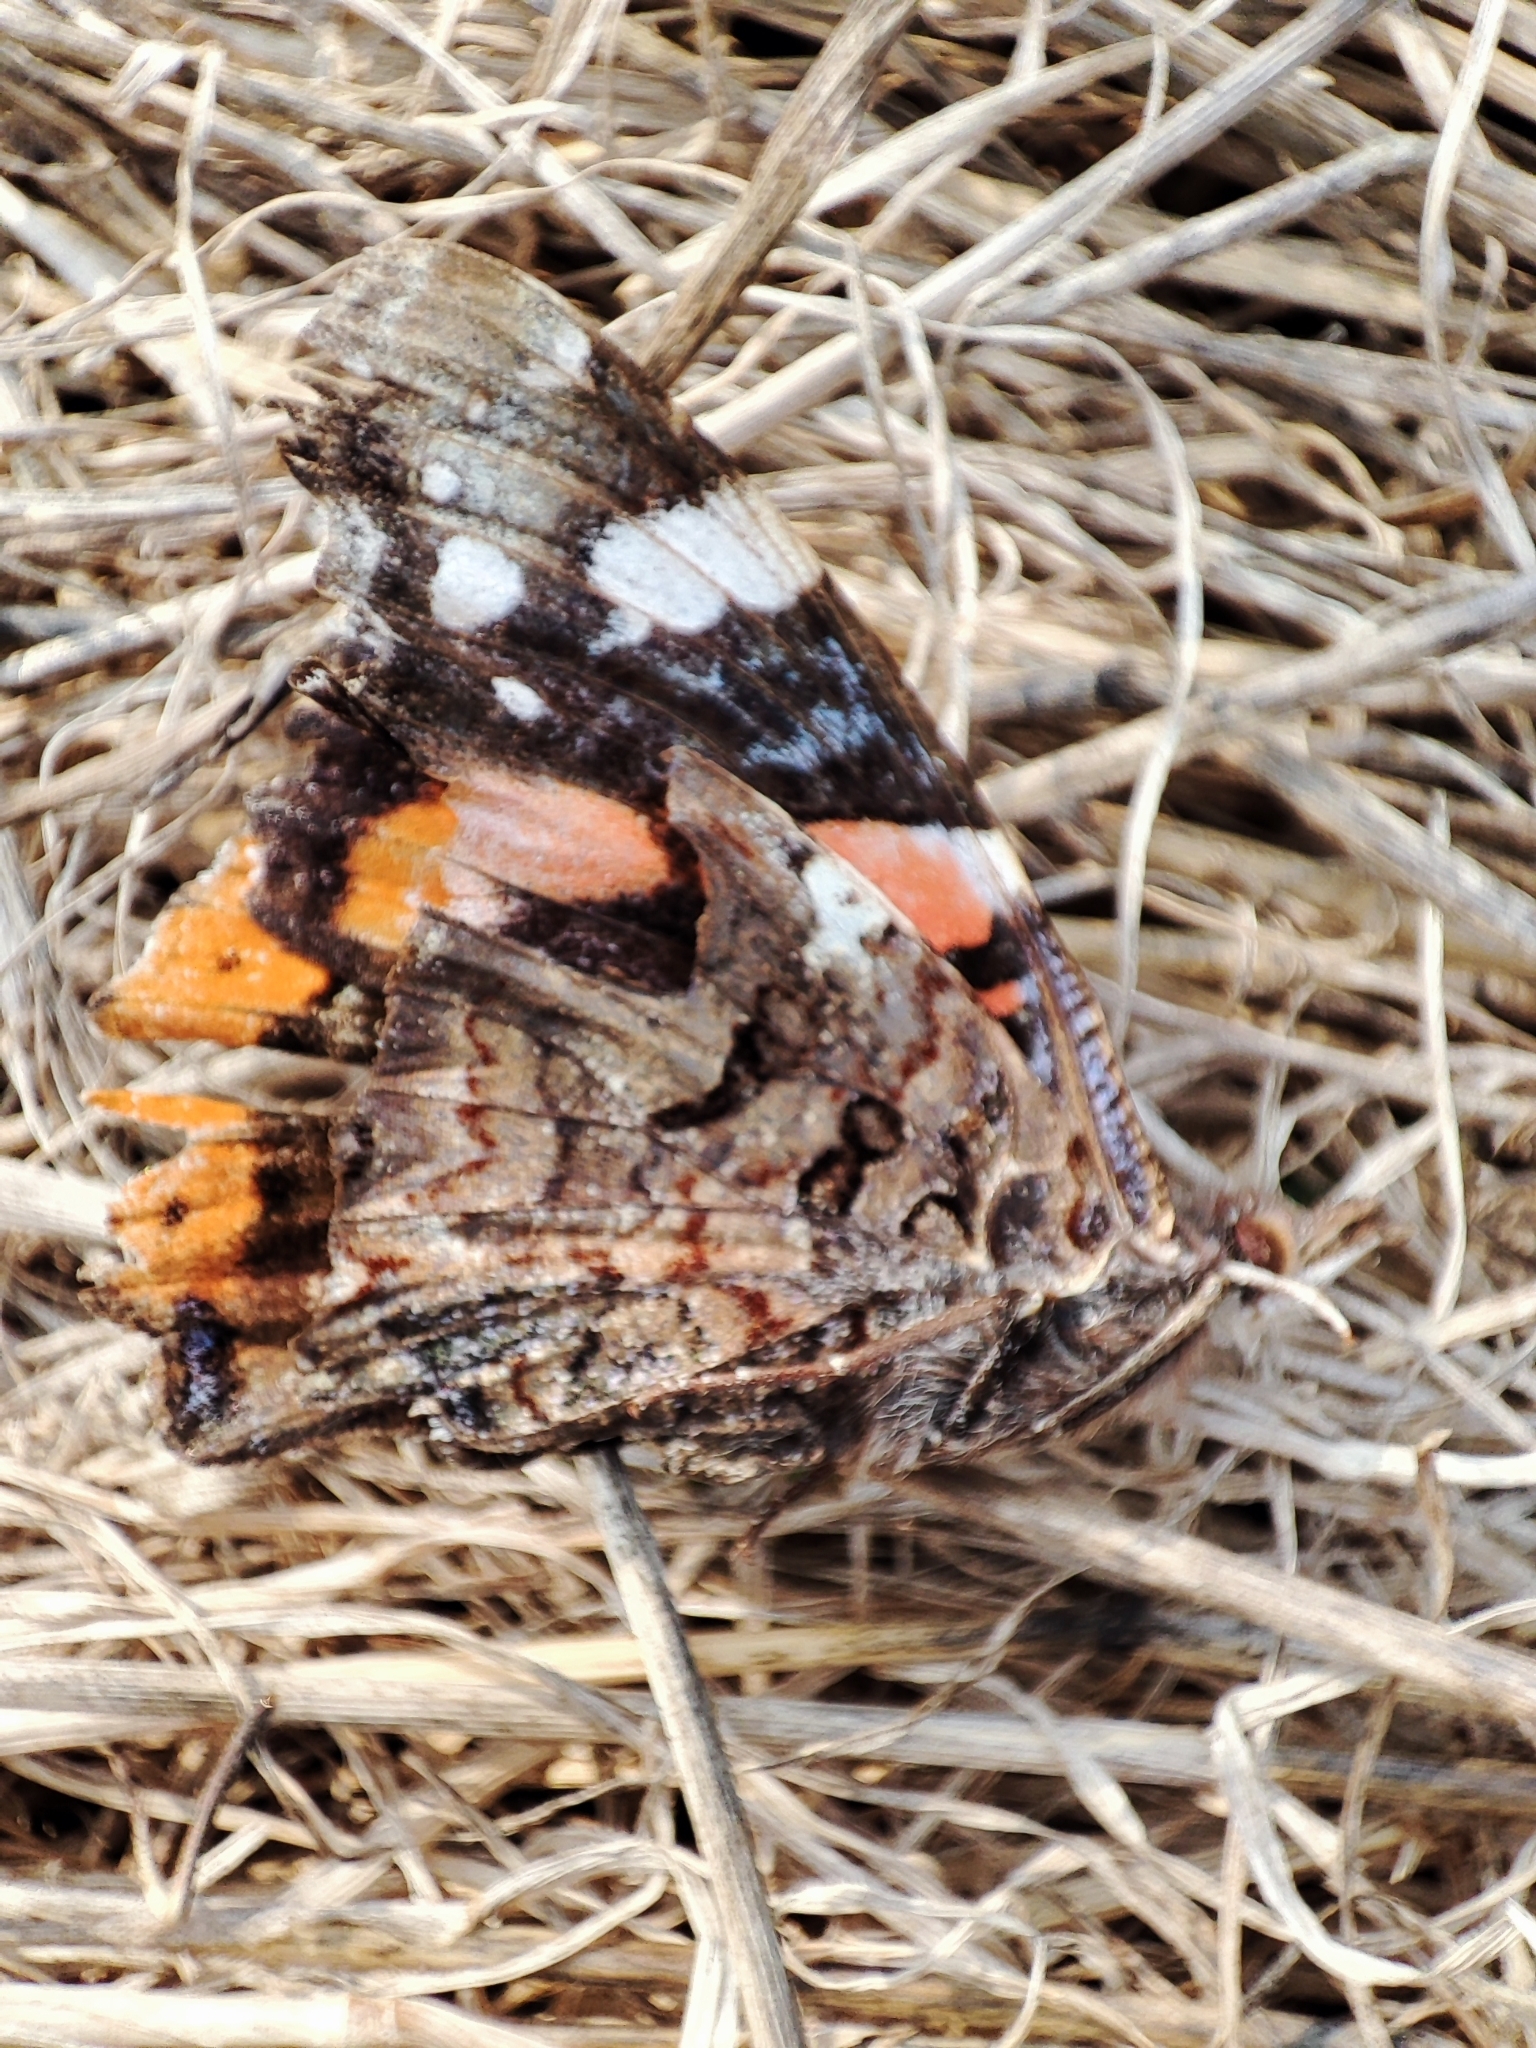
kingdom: Animalia
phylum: Arthropoda
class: Insecta
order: Lepidoptera
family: Nymphalidae
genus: Vanessa
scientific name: Vanessa atalanta
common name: Red admiral
